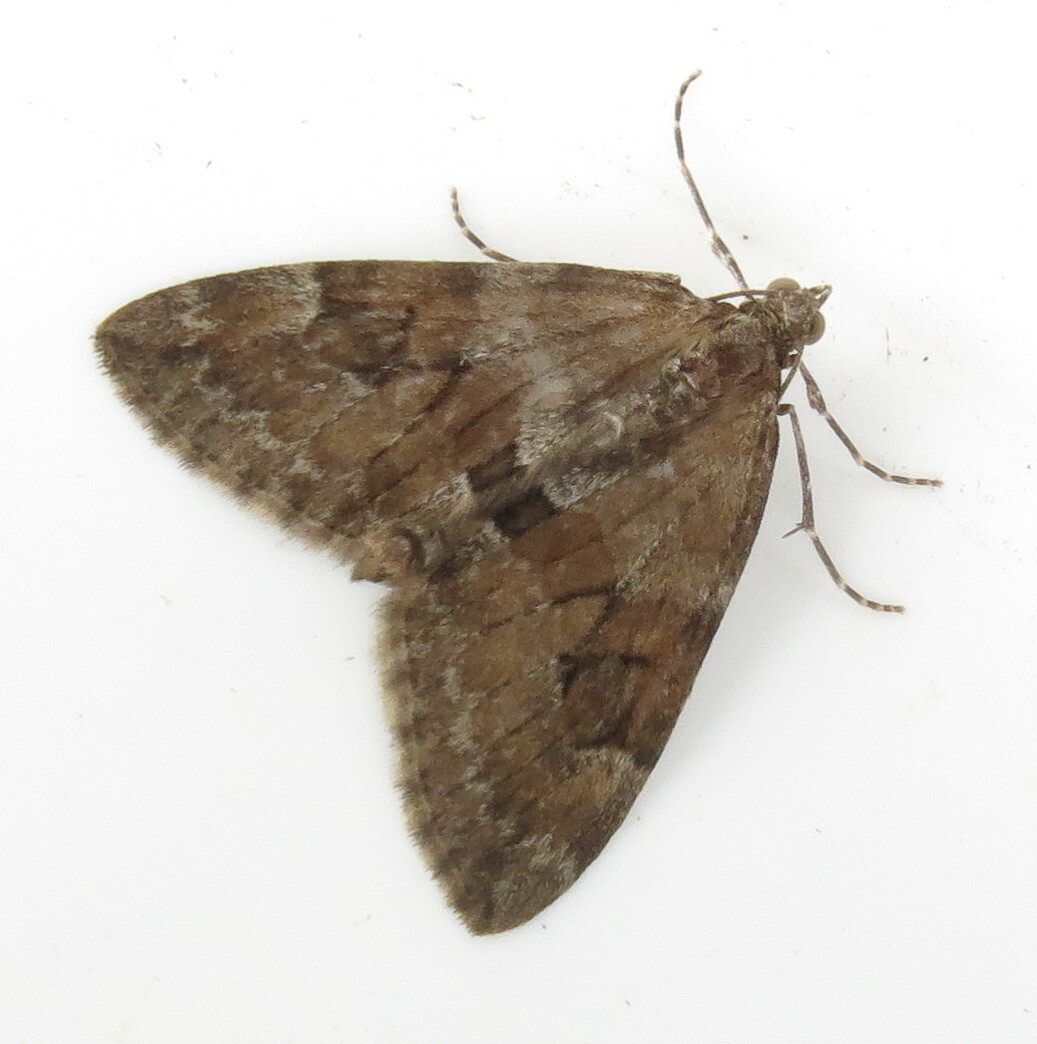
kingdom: Animalia
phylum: Arthropoda
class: Insecta
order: Lepidoptera
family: Geometridae
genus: Thera
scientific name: Thera britannica
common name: Spruce carpet
